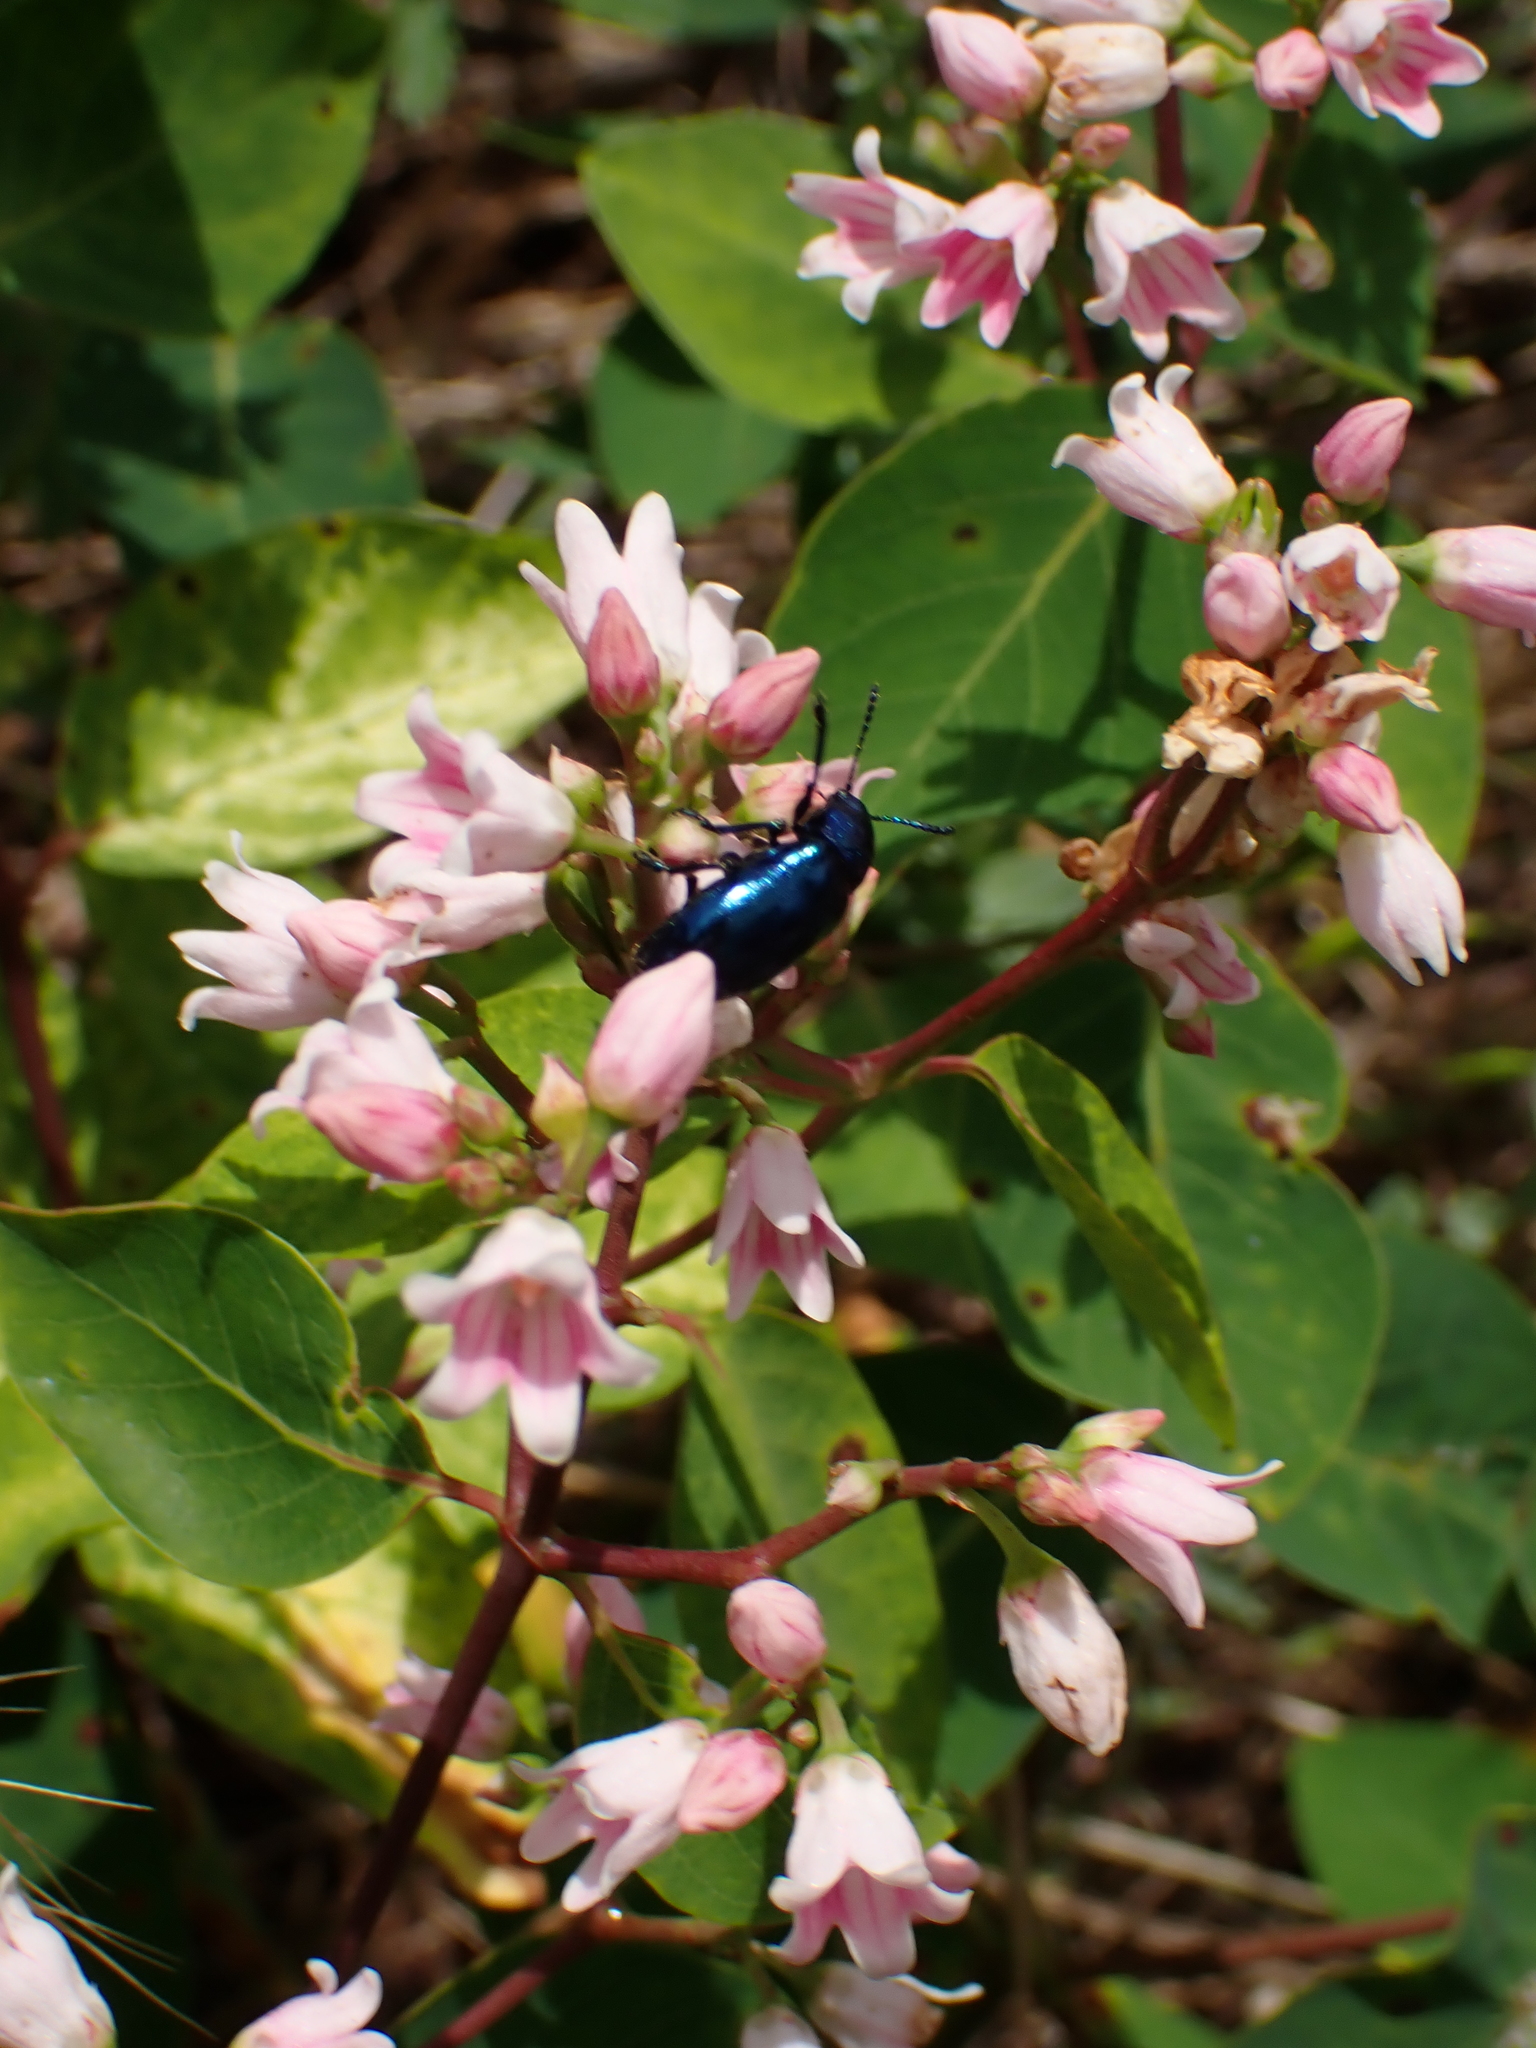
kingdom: Animalia
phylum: Arthropoda
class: Insecta
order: Coleoptera
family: Chrysomelidae
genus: Chrysochus
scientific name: Chrysochus cobaltinus
